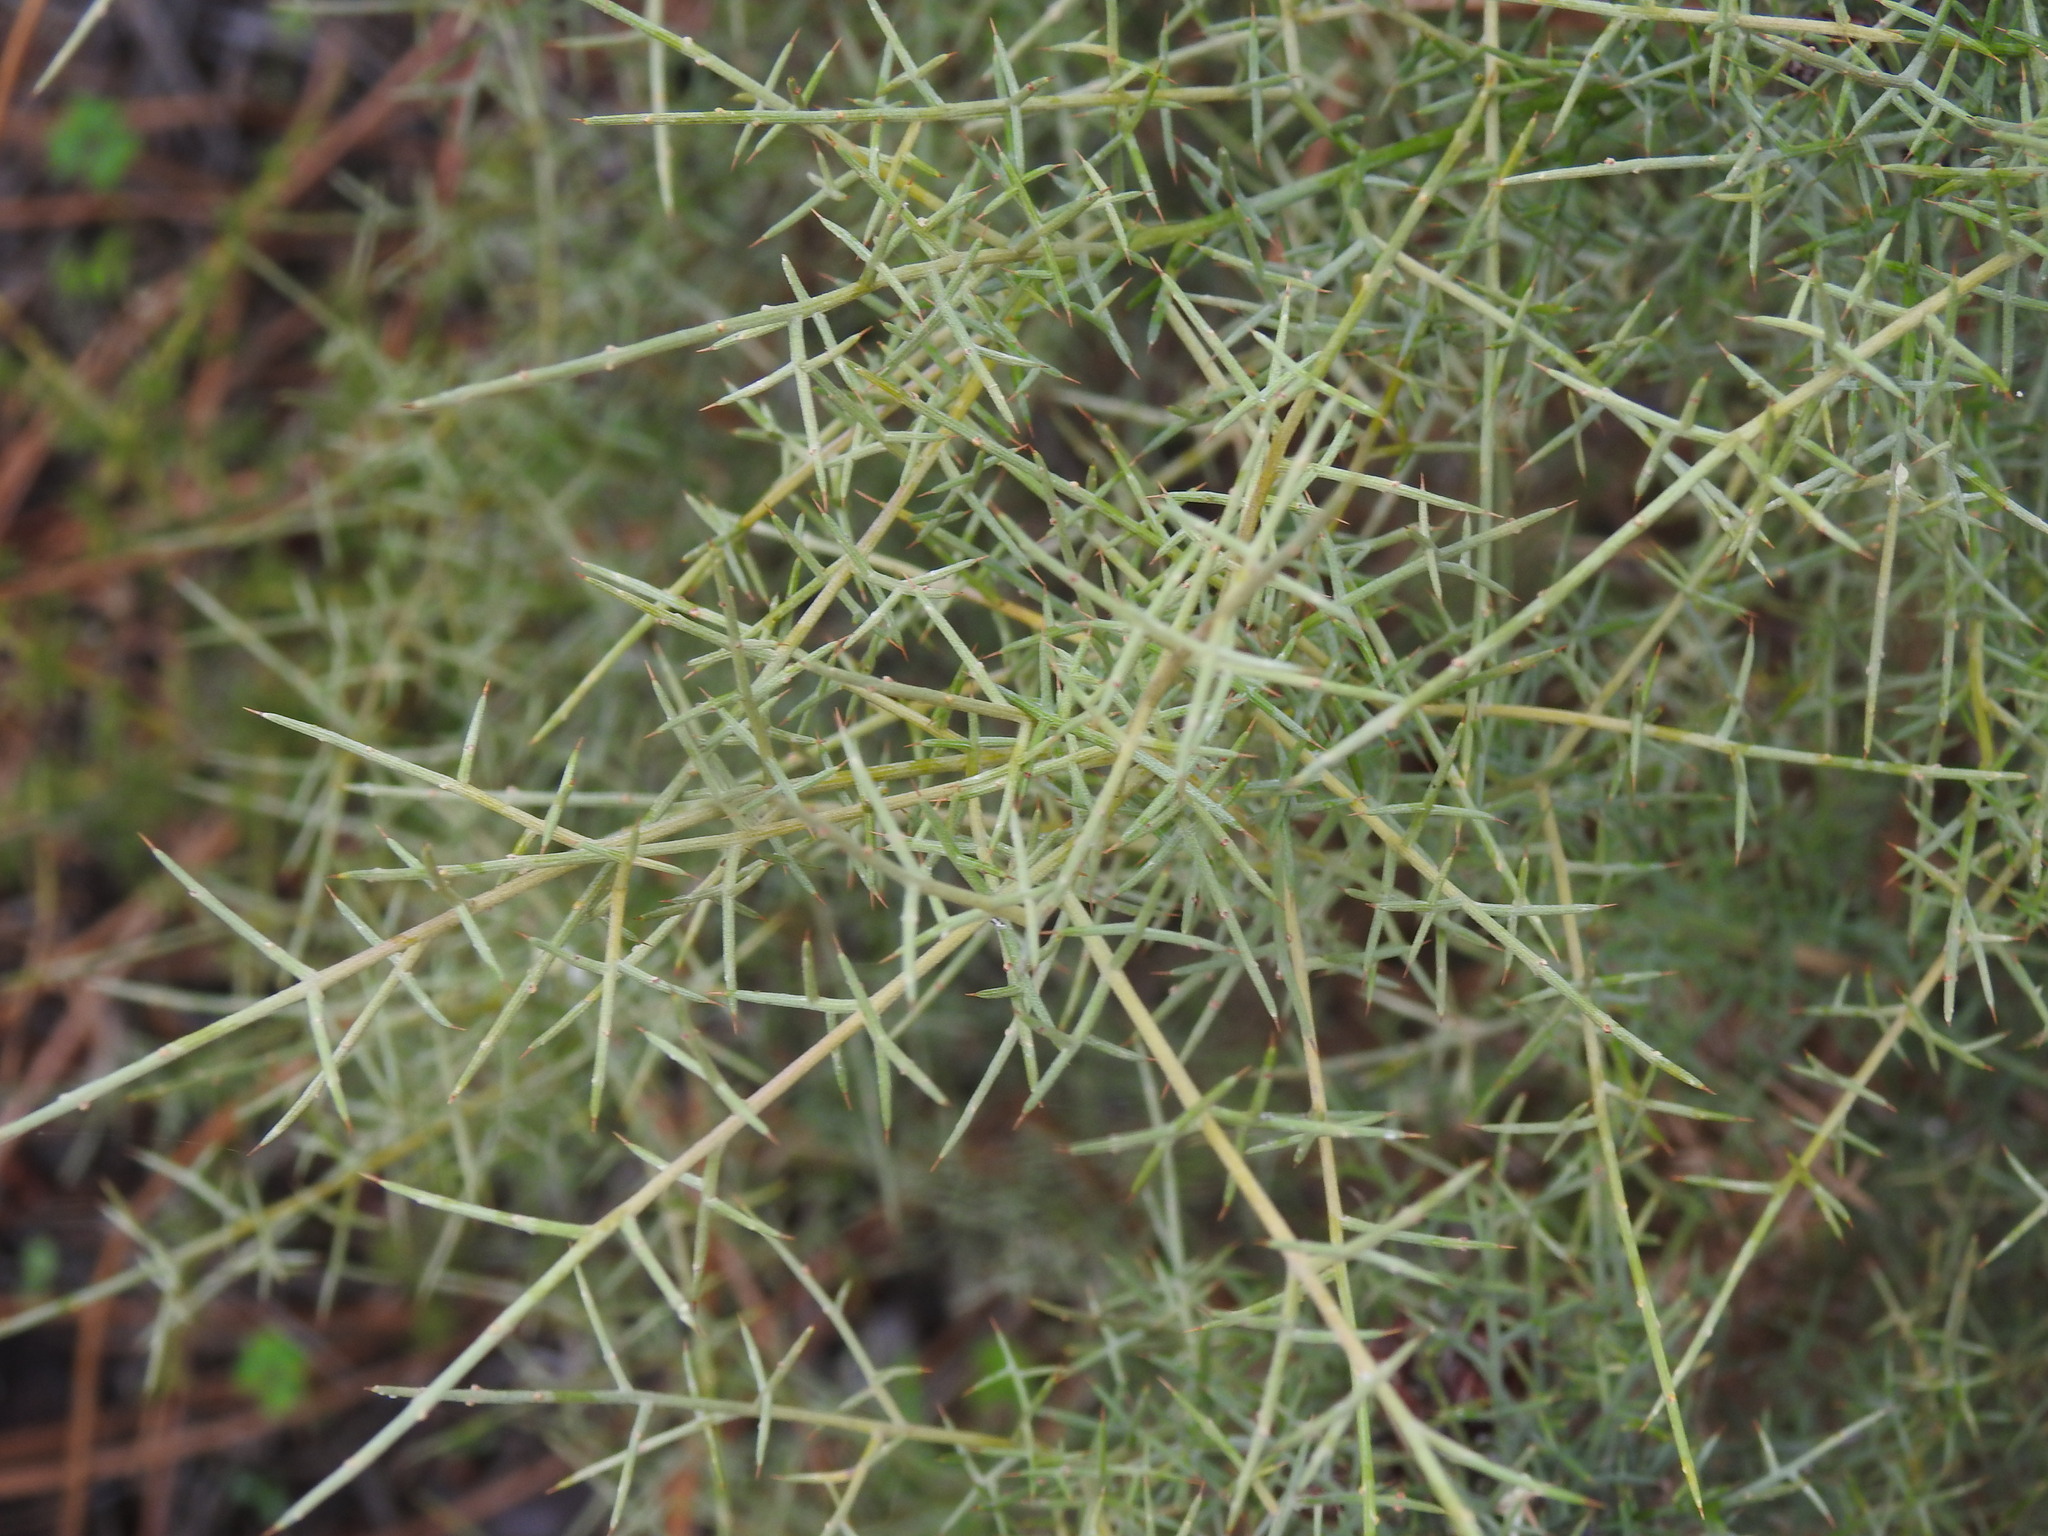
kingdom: Plantae
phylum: Tracheophyta
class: Magnoliopsida
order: Fabales
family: Fabaceae
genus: Stauracanthus
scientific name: Stauracanthus genistoides
